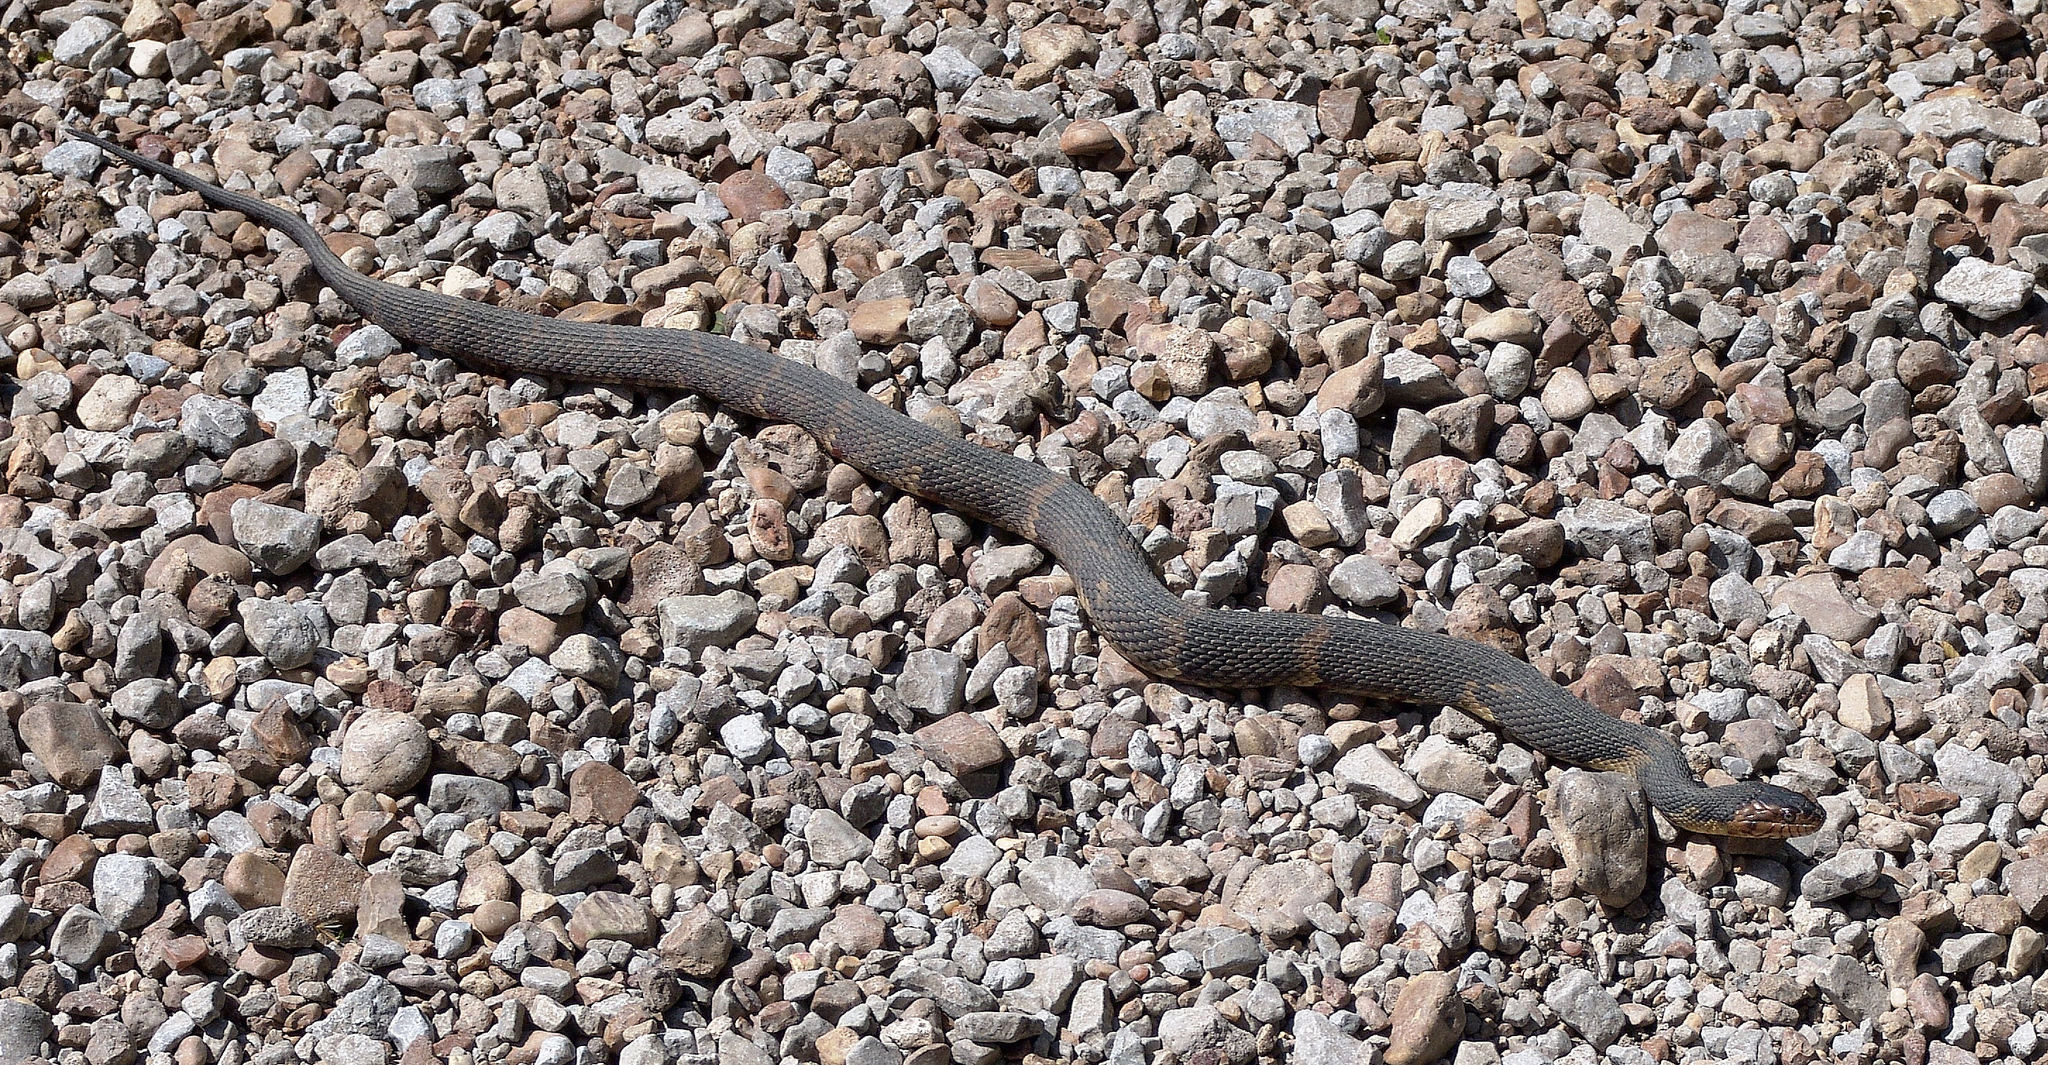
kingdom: Animalia
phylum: Chordata
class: Squamata
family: Colubridae
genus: Nerodia
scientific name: Nerodia fasciata
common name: Southern water snake
